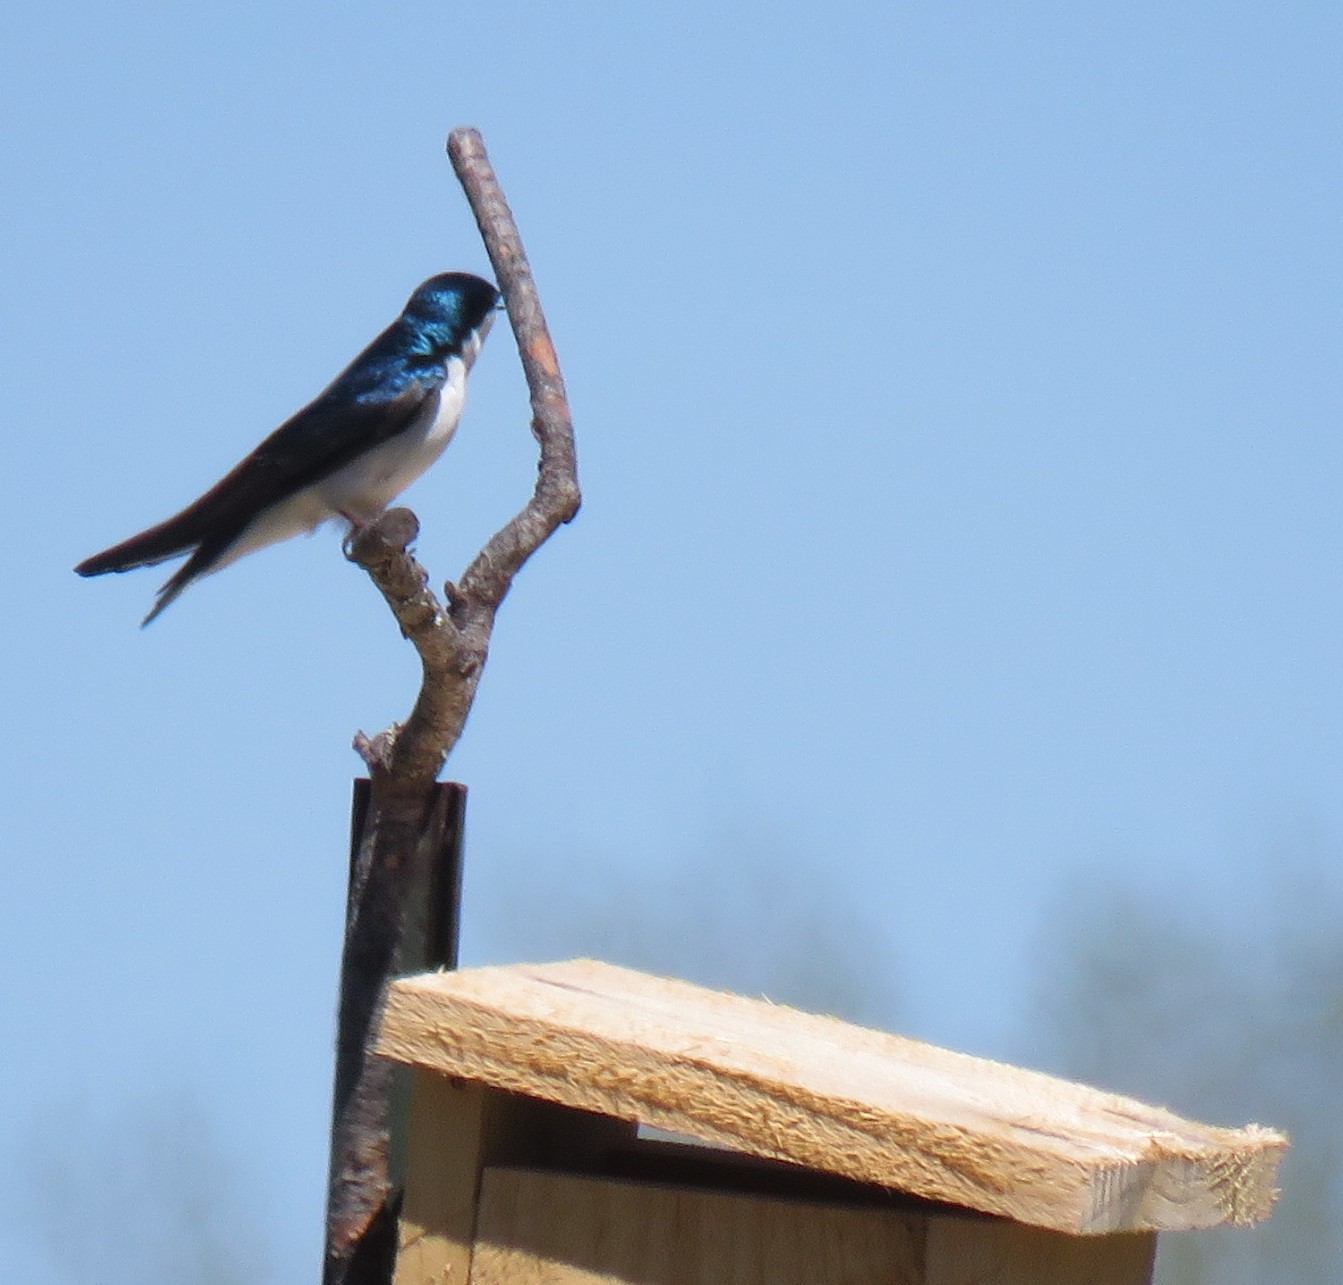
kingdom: Animalia
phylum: Chordata
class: Aves
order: Passeriformes
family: Hirundinidae
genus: Tachycineta
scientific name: Tachycineta bicolor
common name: Tree swallow
